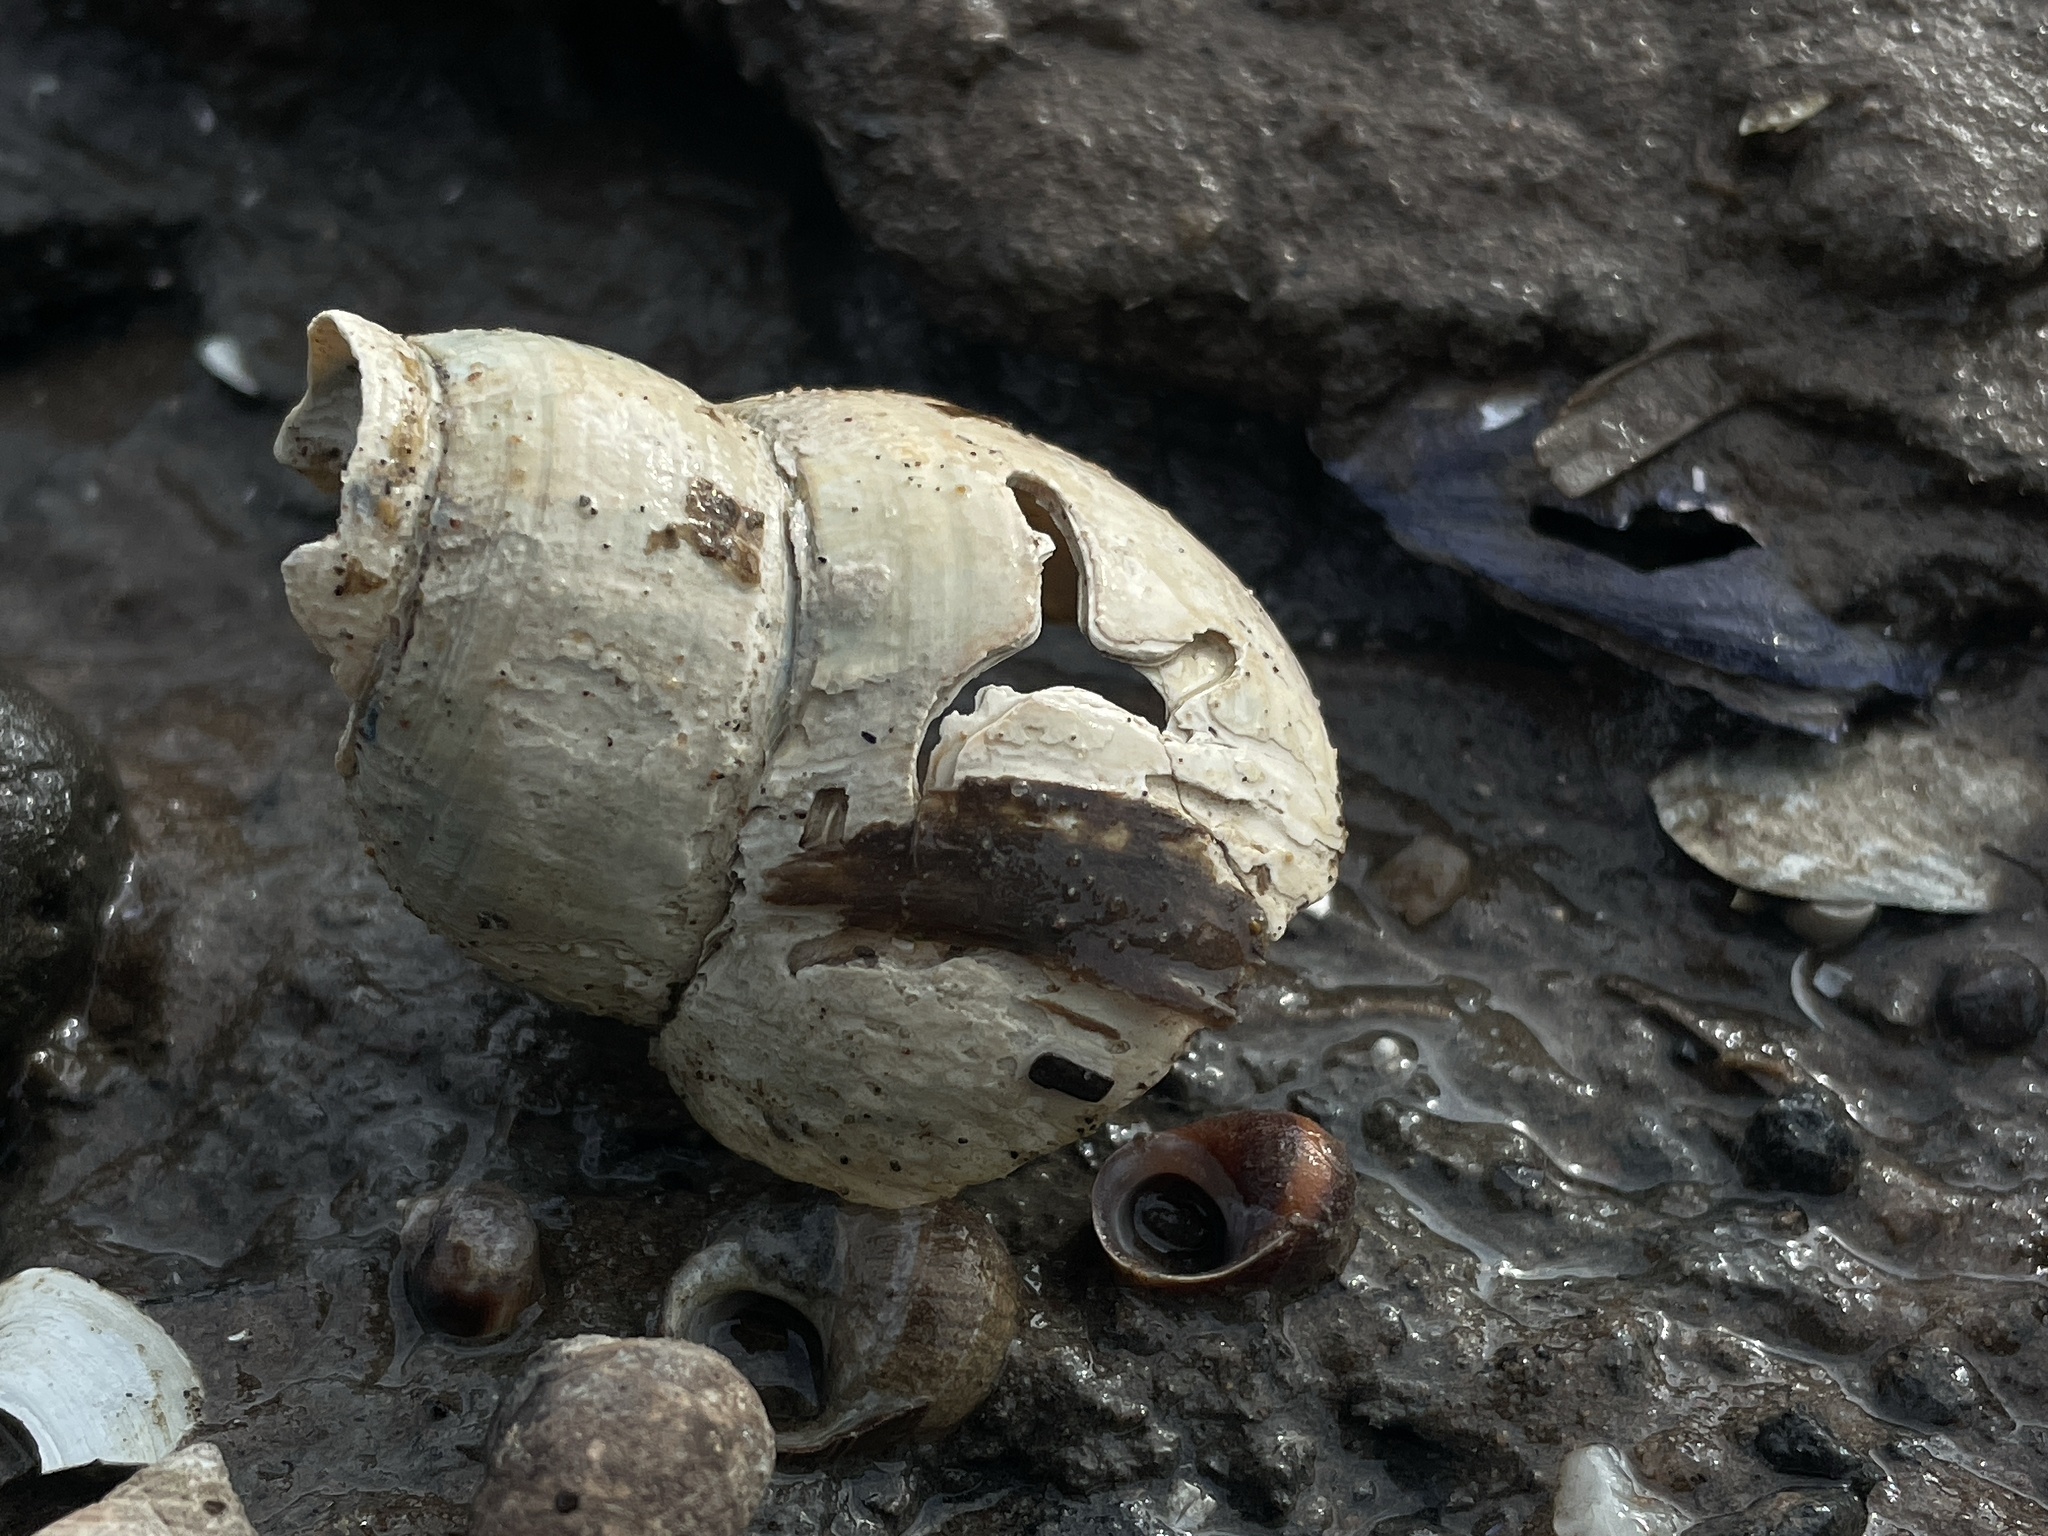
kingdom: Animalia
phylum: Mollusca
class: Gastropoda
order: Neogastropoda
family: Colidae
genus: Colus
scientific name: Colus stimpsoni
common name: Stimpson's colus
